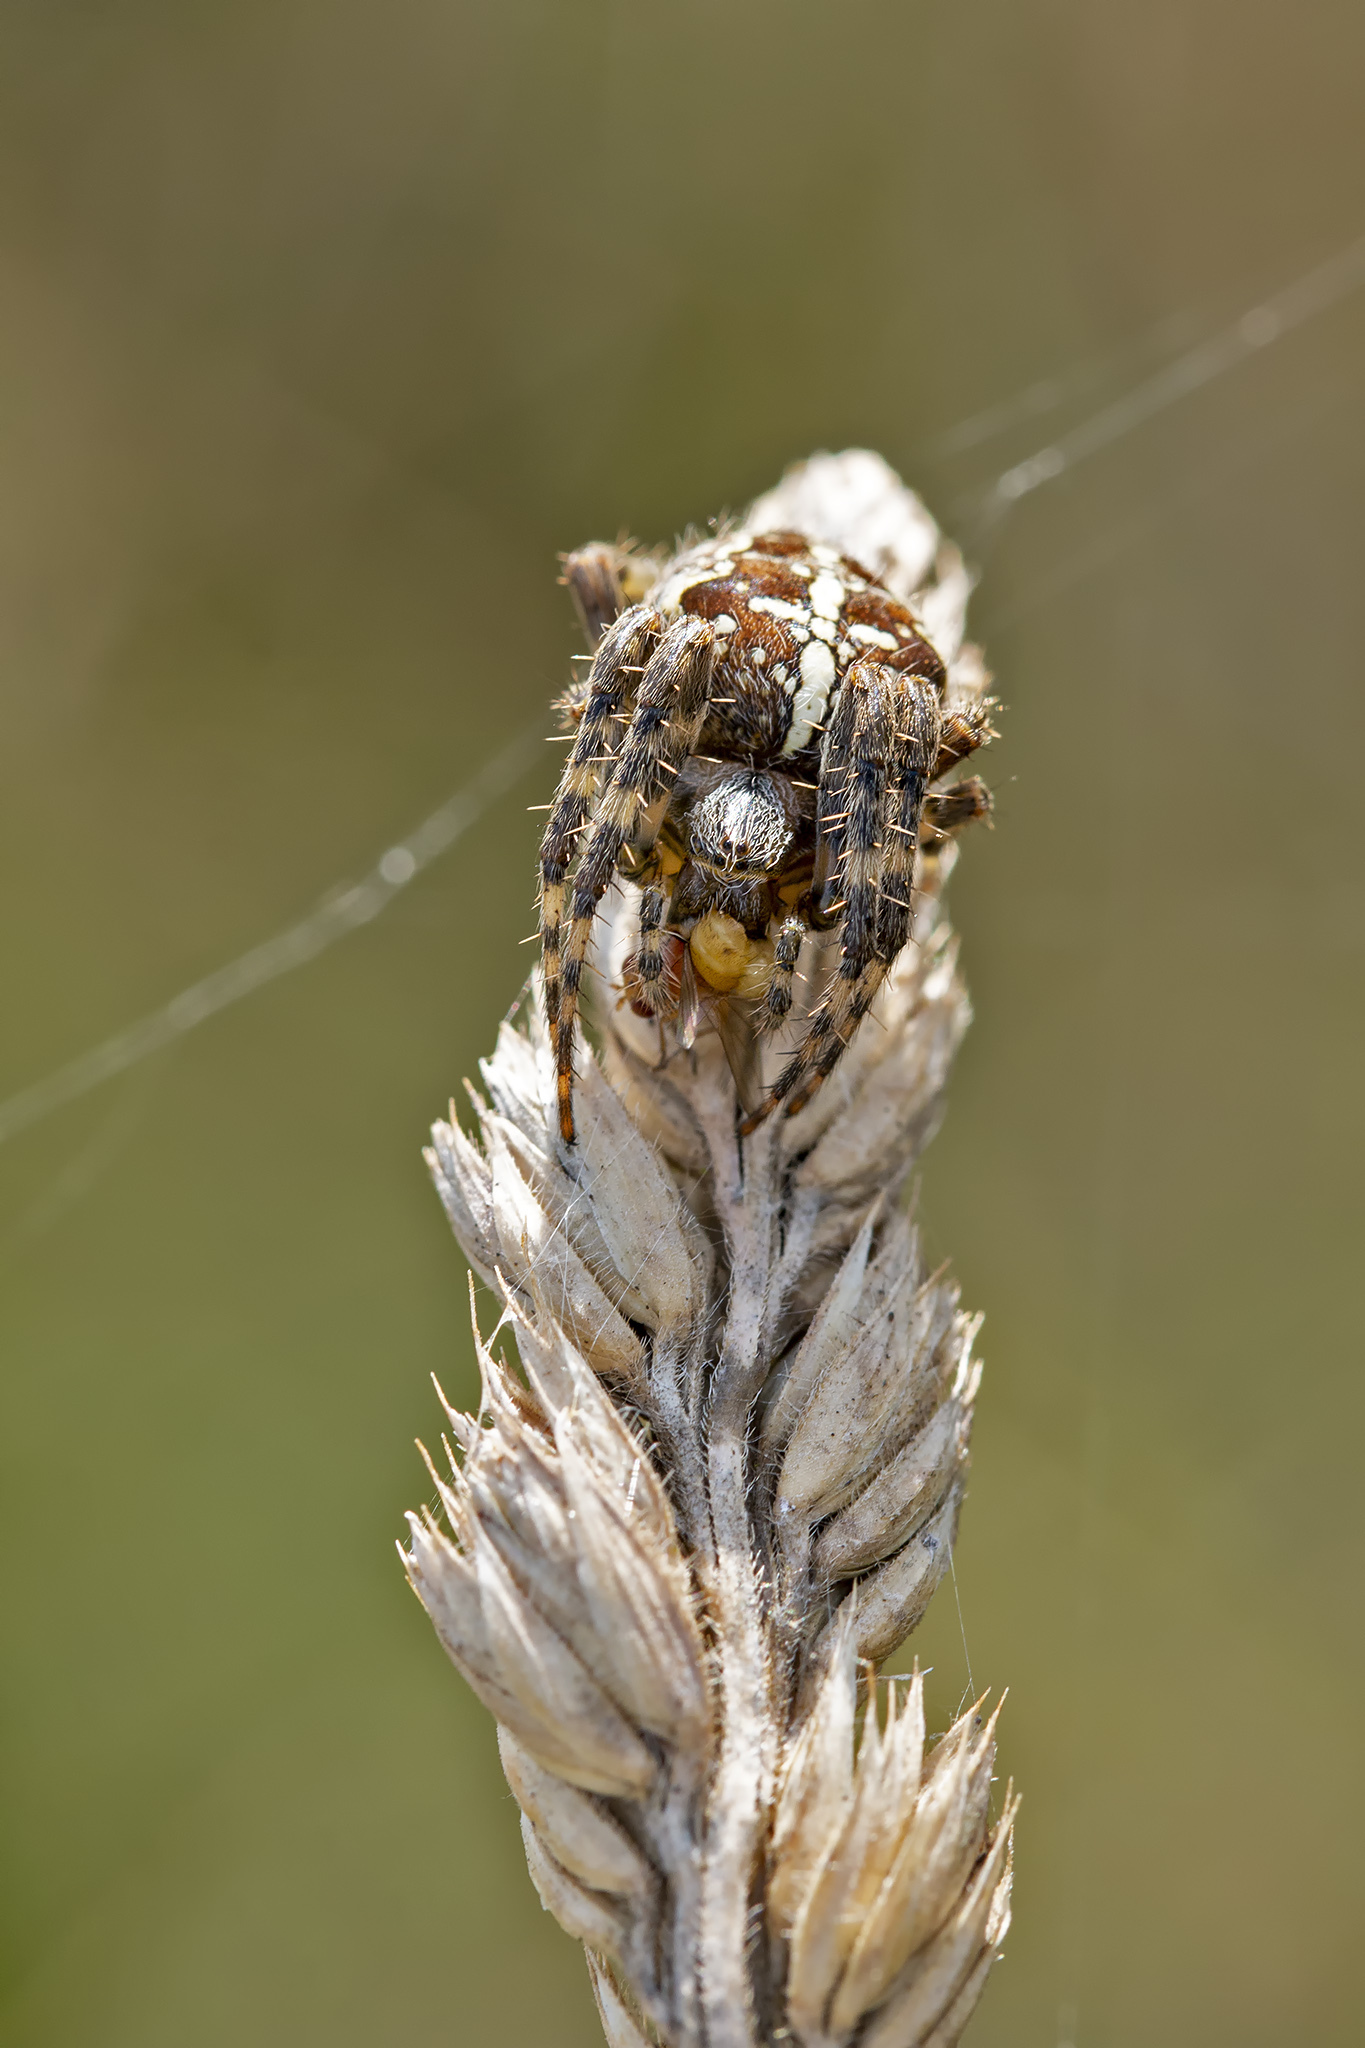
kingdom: Animalia
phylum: Arthropoda
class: Arachnida
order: Araneae
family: Araneidae
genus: Araneus
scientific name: Araneus diadematus
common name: Cross orbweaver
